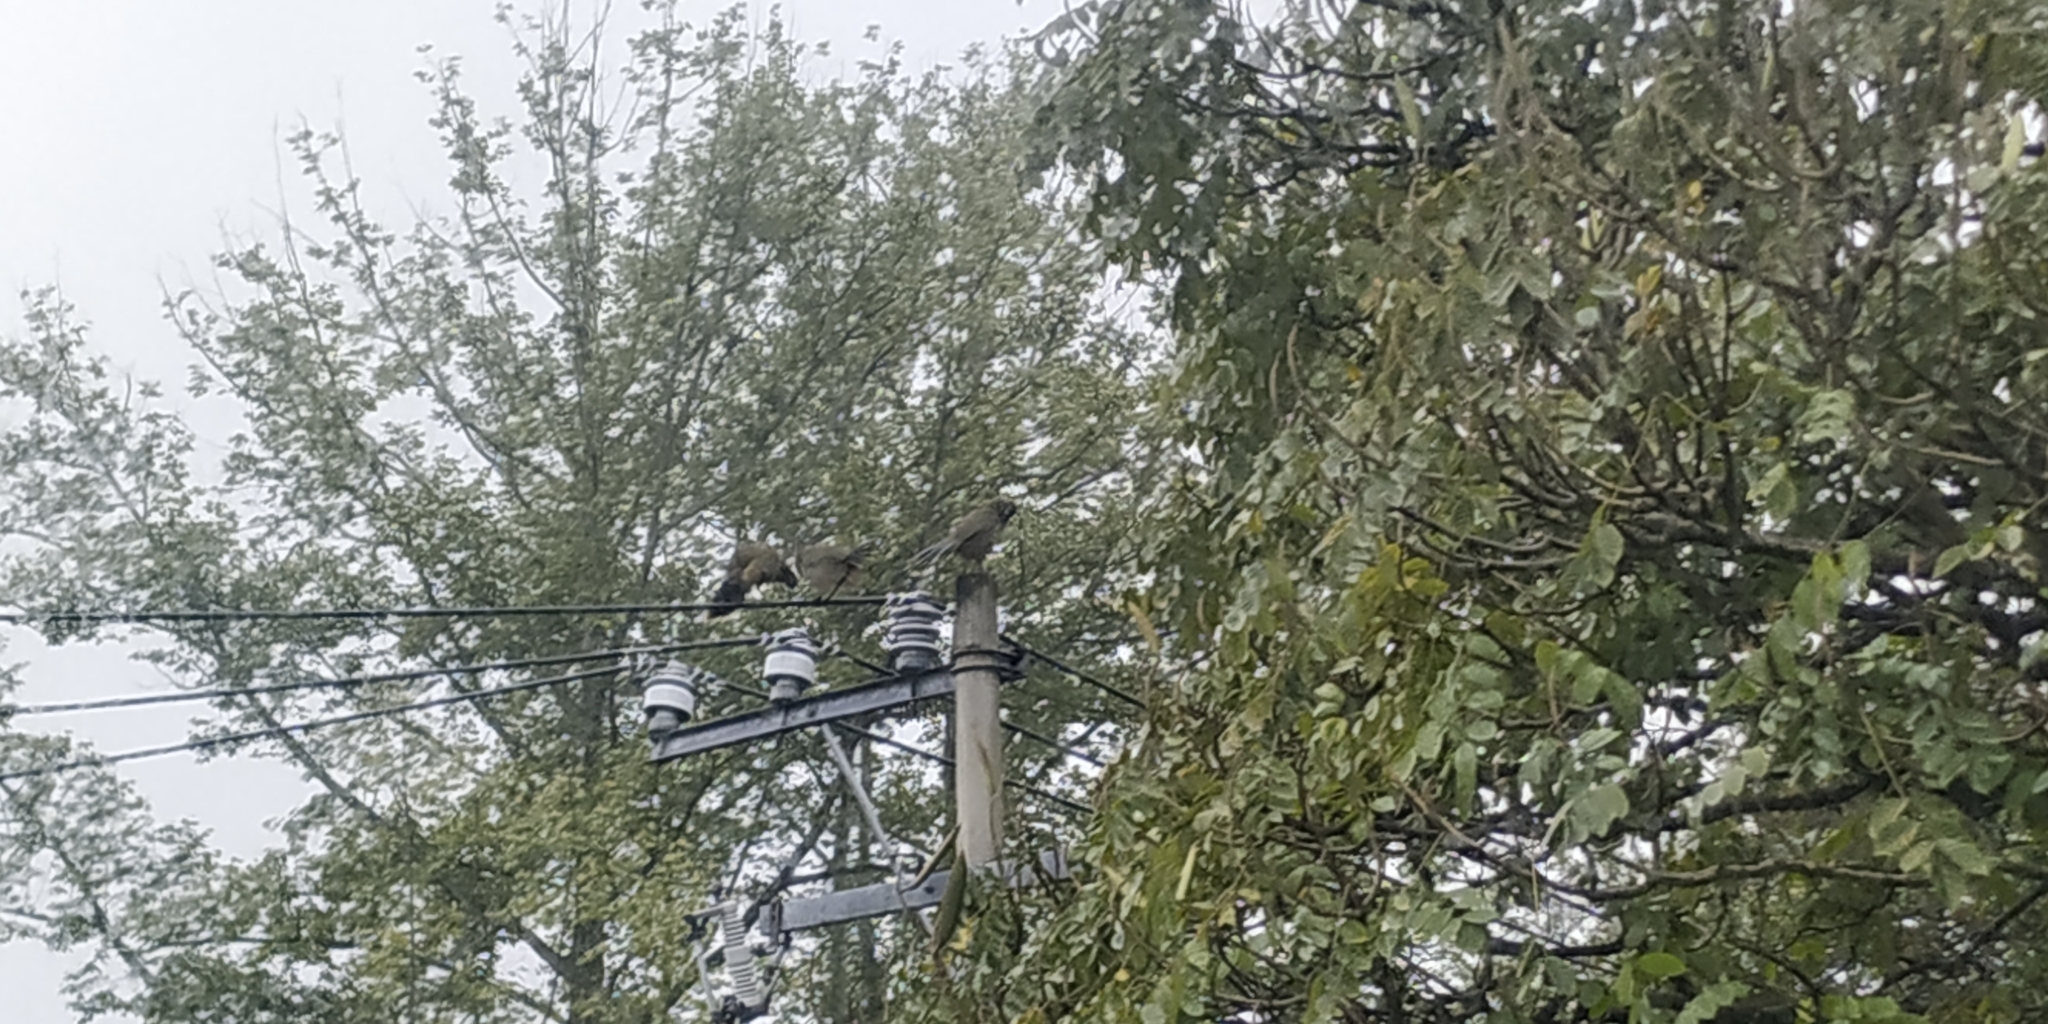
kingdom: Animalia
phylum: Chordata
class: Aves
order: Galliformes
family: Cracidae
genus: Ortalis
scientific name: Ortalis vetula
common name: Plain chachalaca
